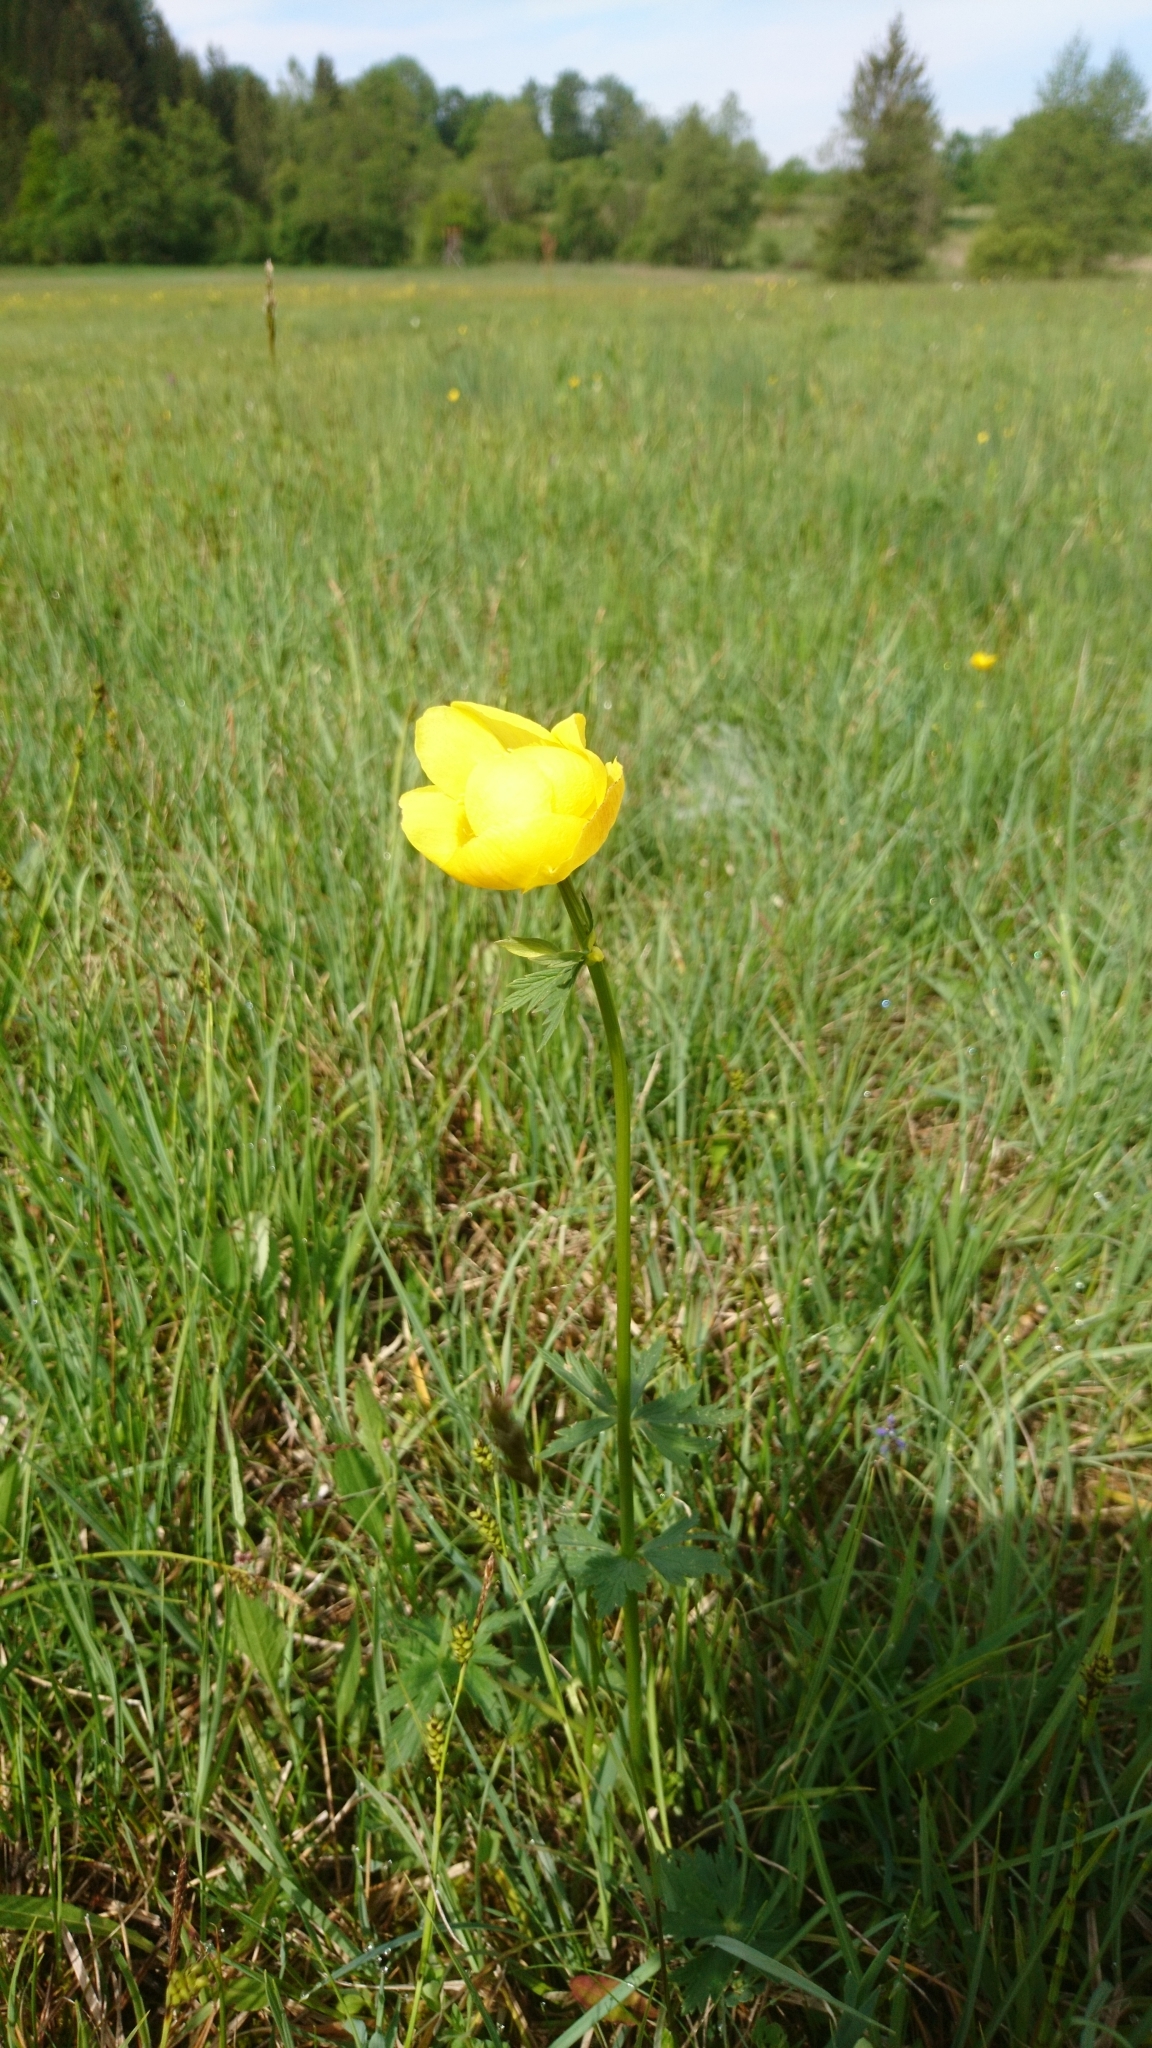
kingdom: Plantae
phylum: Tracheophyta
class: Magnoliopsida
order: Ranunculales
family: Ranunculaceae
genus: Trollius
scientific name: Trollius europaeus
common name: European globeflower
